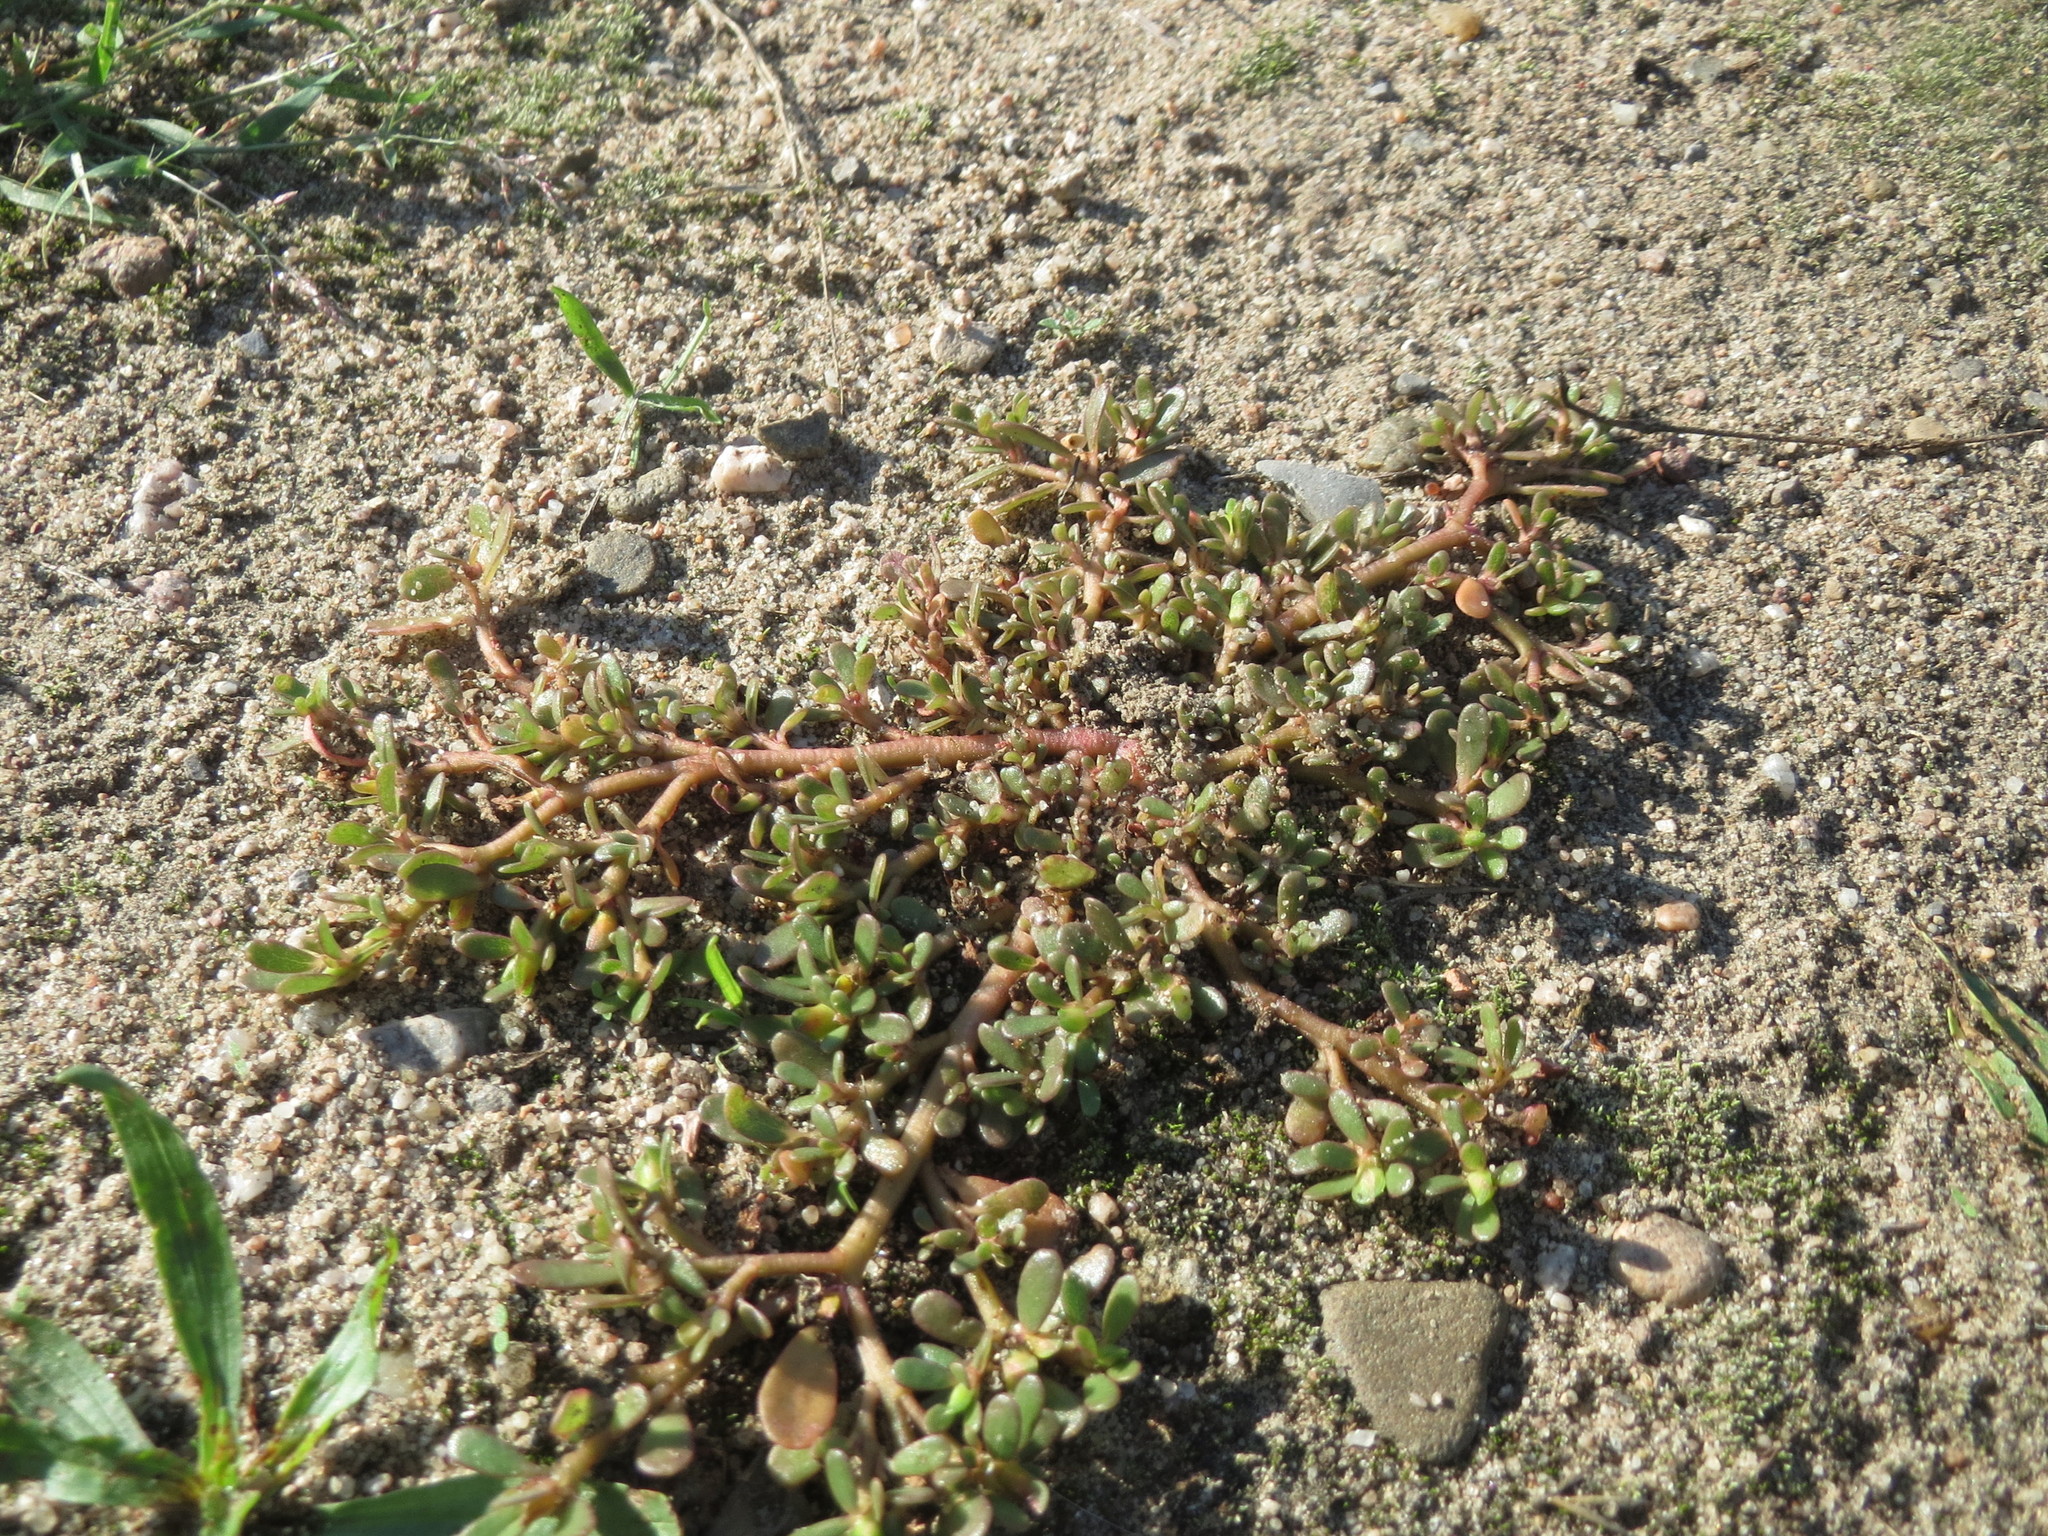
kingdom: Plantae
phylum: Tracheophyta
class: Magnoliopsida
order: Caryophyllales
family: Portulacaceae
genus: Portulaca
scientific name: Portulaca oleracea
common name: Common purslane
